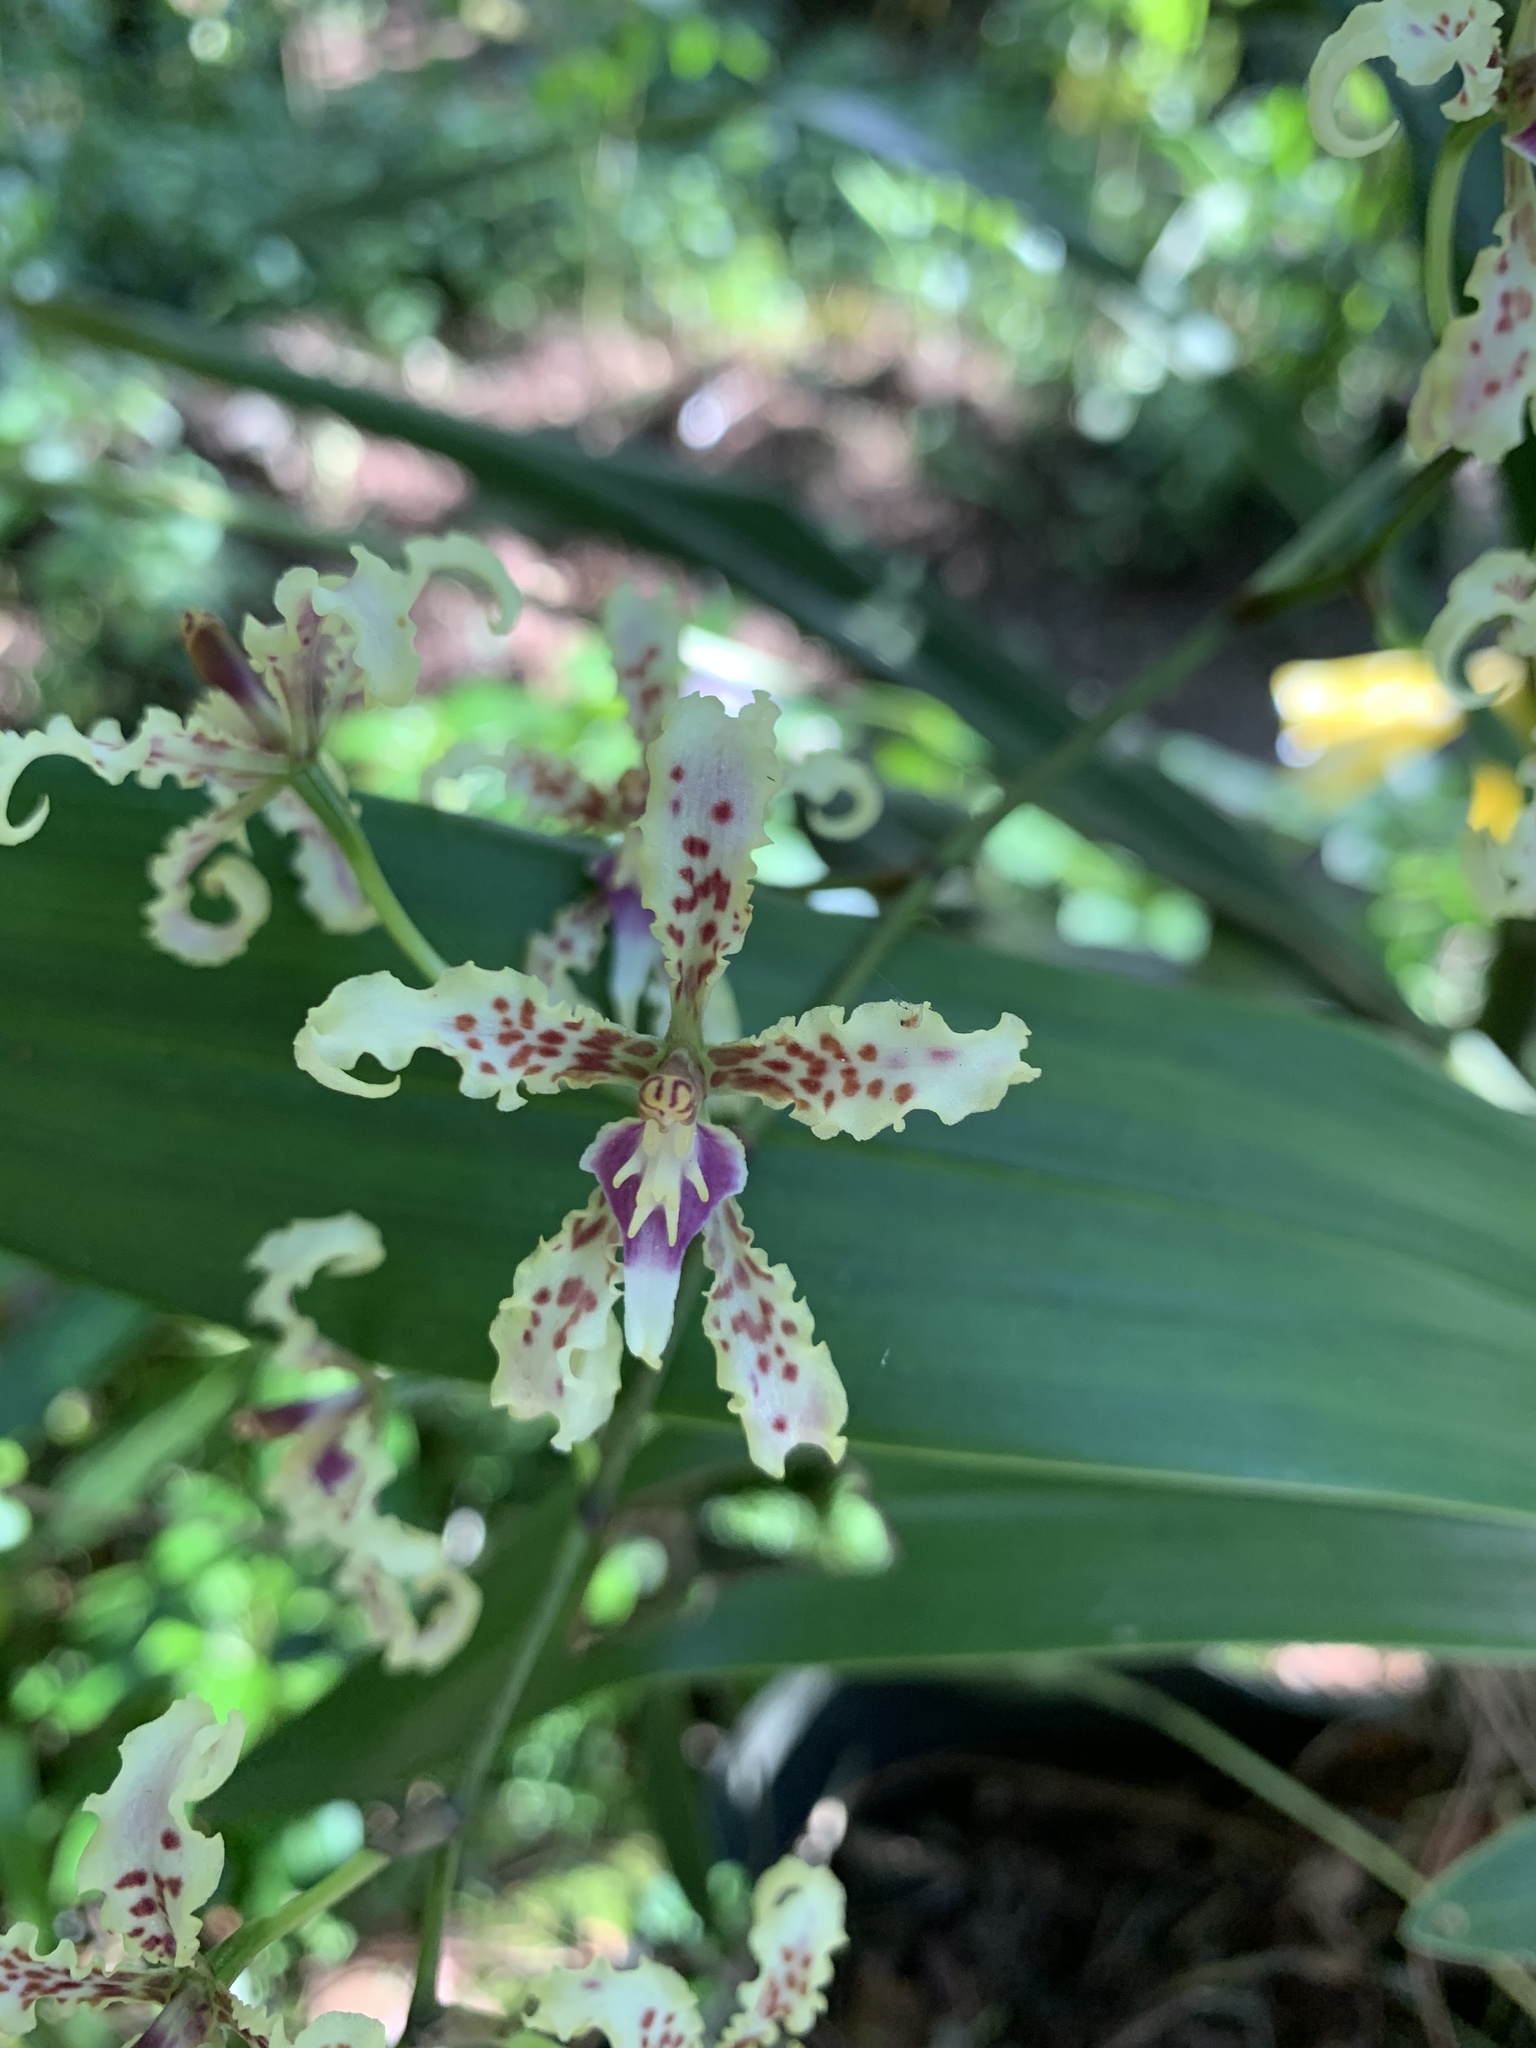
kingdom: Plantae
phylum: Tracheophyta
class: Liliopsida
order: Asparagales
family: Orchidaceae
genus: Cyrtochilum
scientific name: Cyrtochilum ramosissimum
